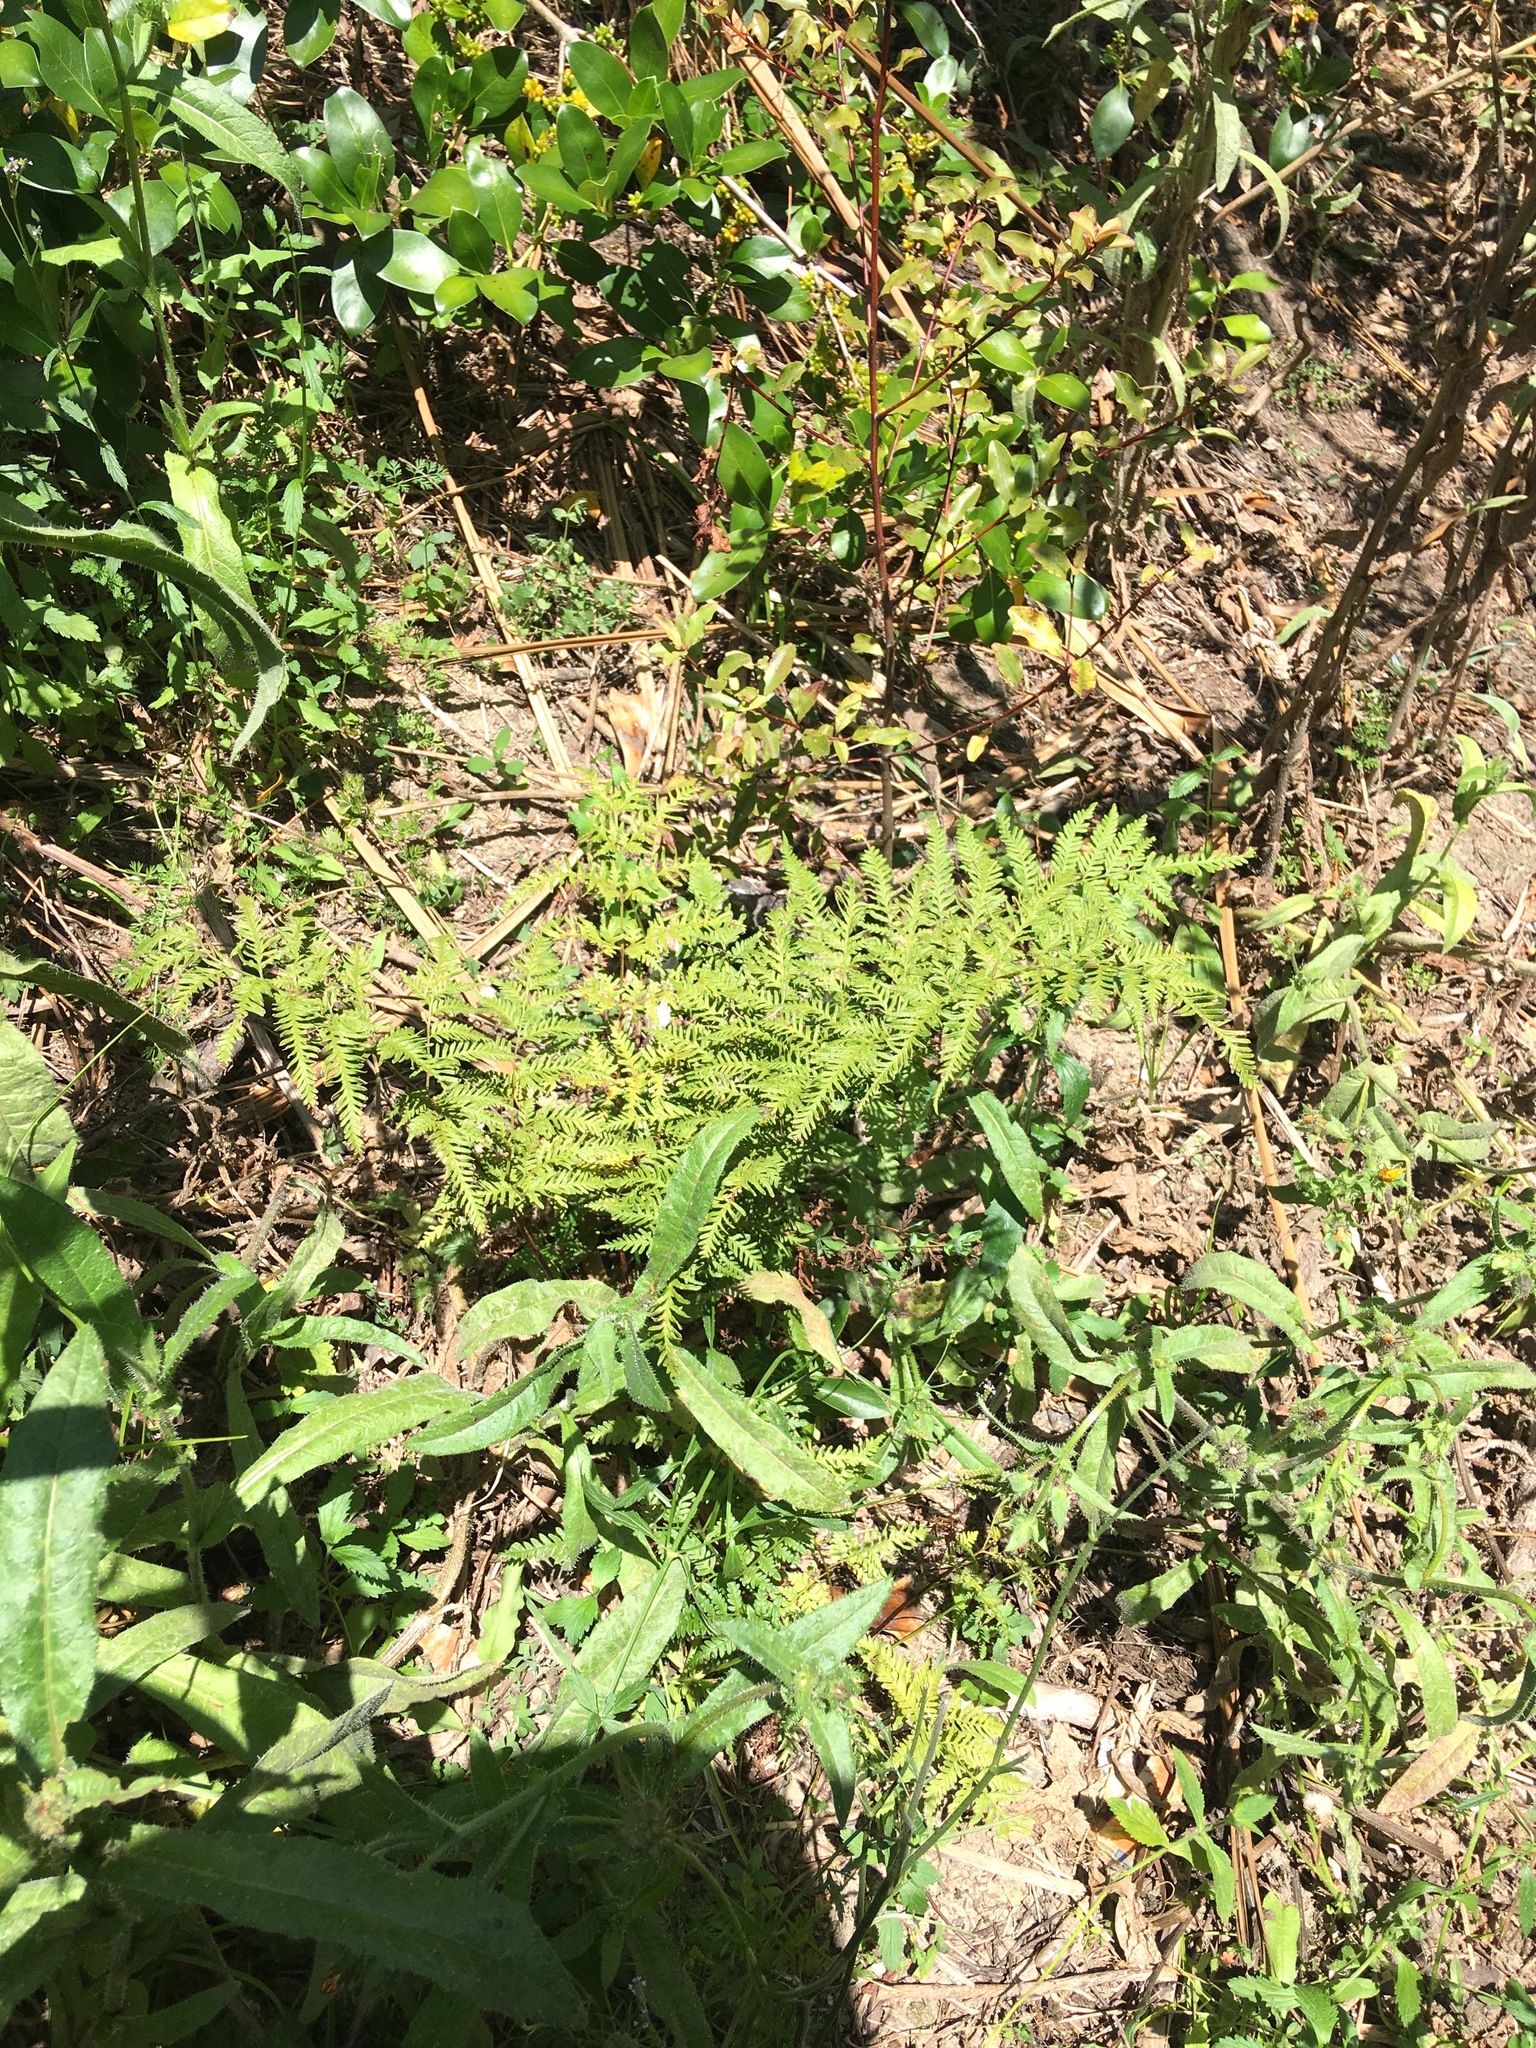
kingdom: Plantae
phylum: Tracheophyta
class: Polypodiopsida
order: Polypodiales
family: Pteridaceae
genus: Pteris
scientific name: Pteris tremula
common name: Australian brake
